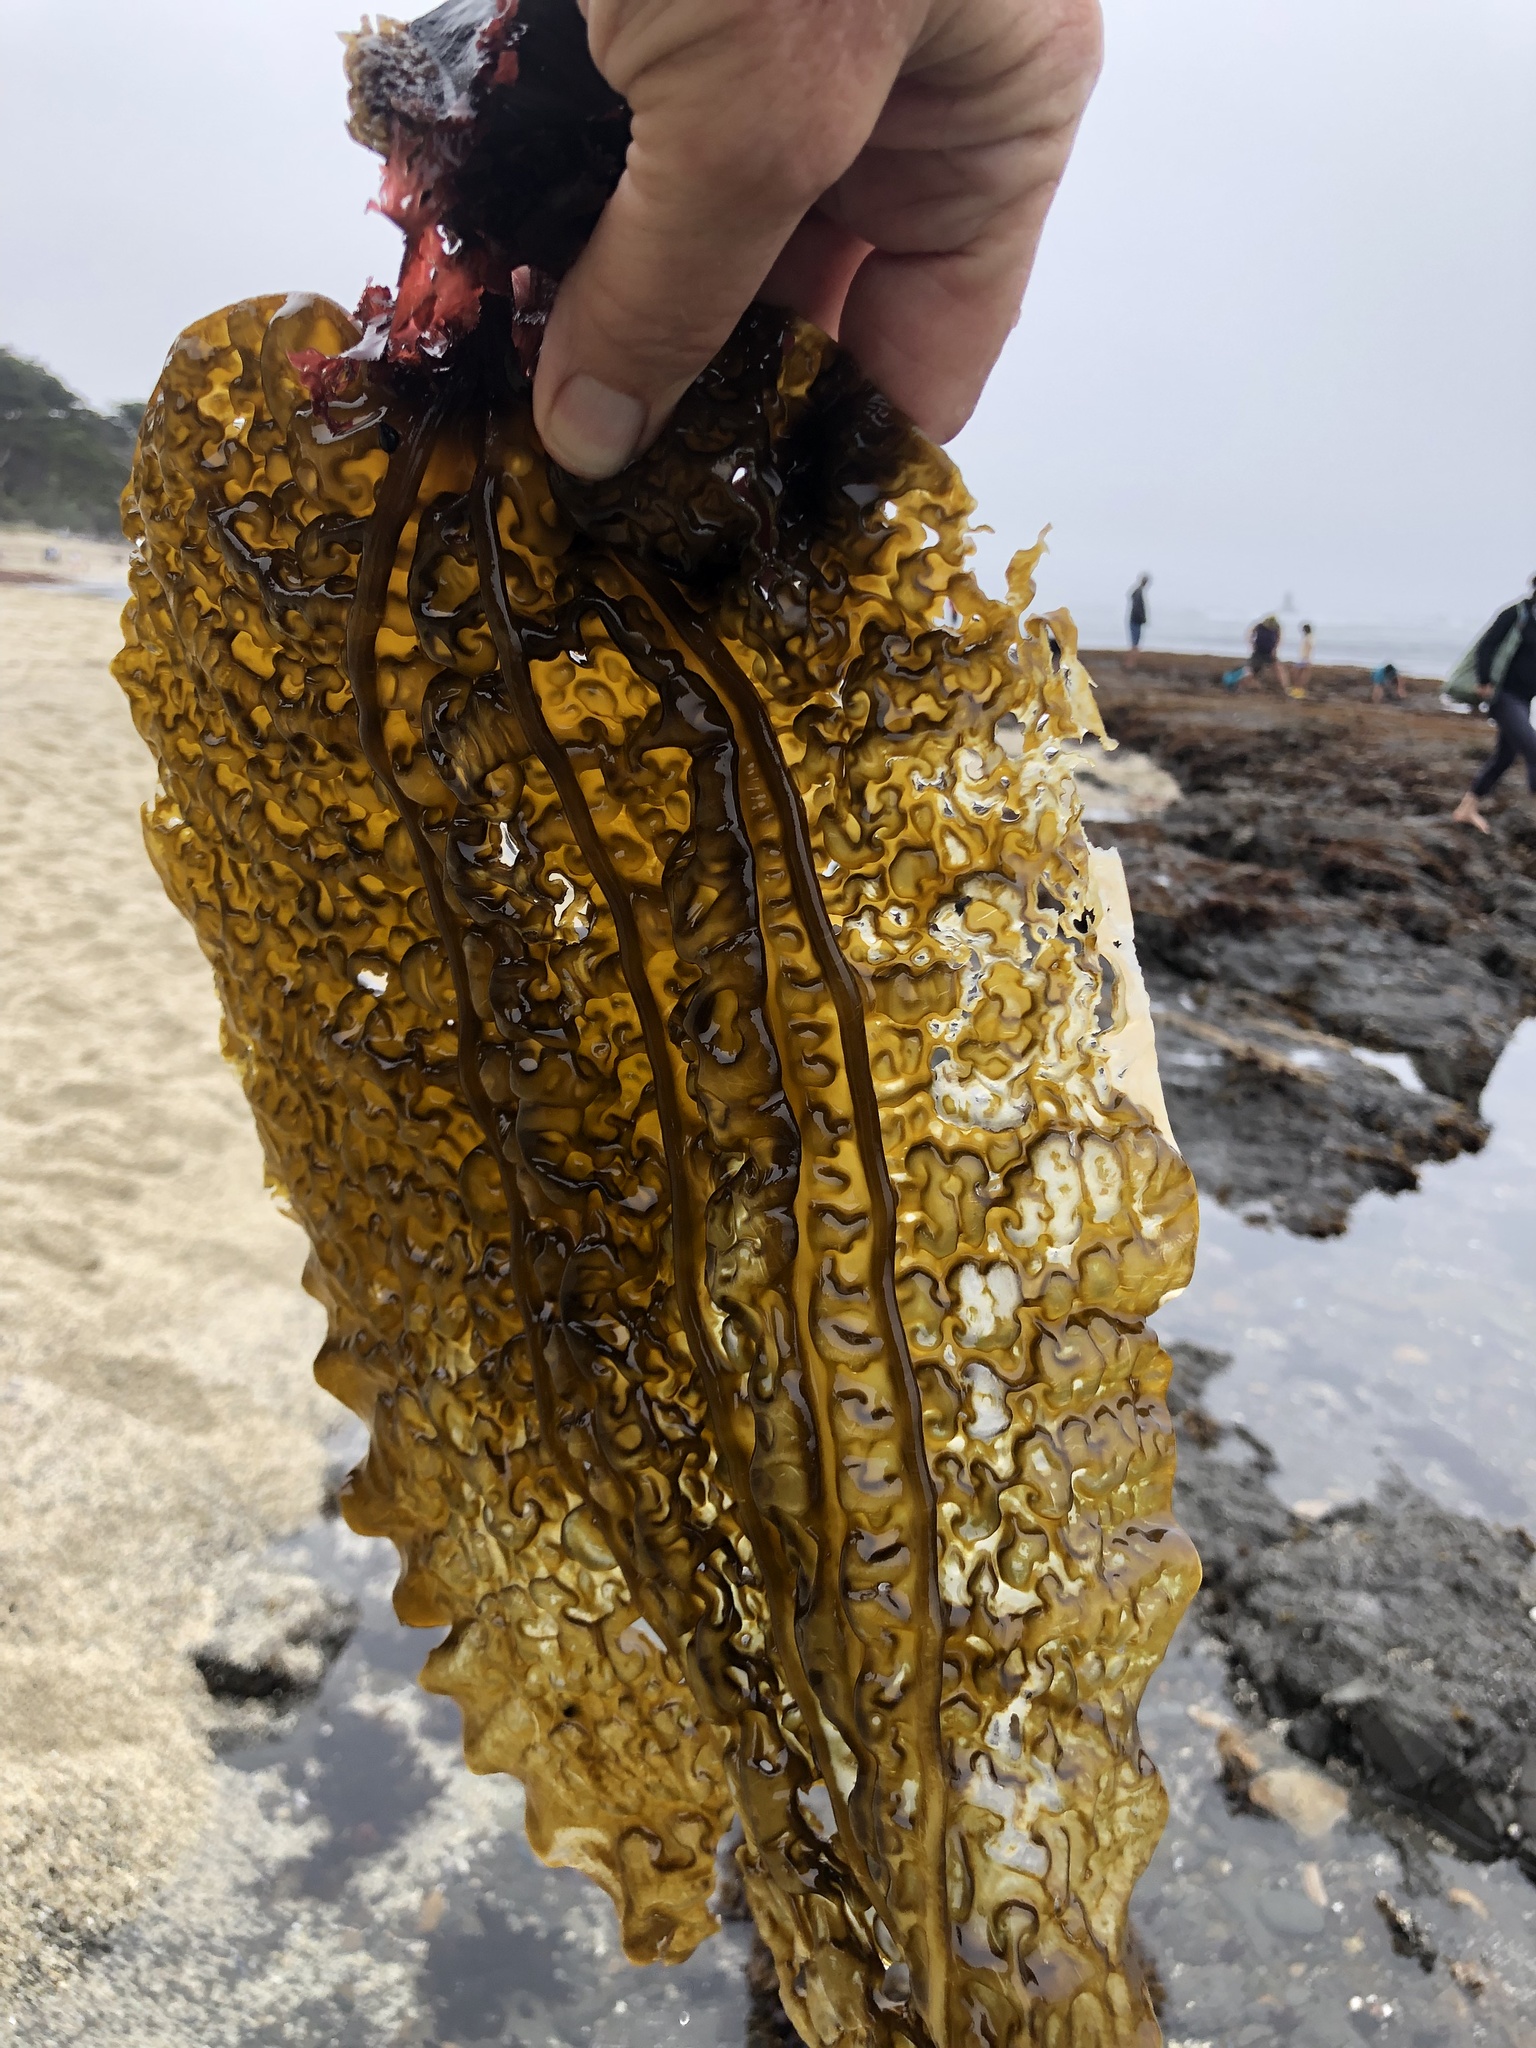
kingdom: Chromista
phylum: Ochrophyta
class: Phaeophyceae
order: Laminariales
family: Costariaceae
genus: Costaria
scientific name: Costaria costata
